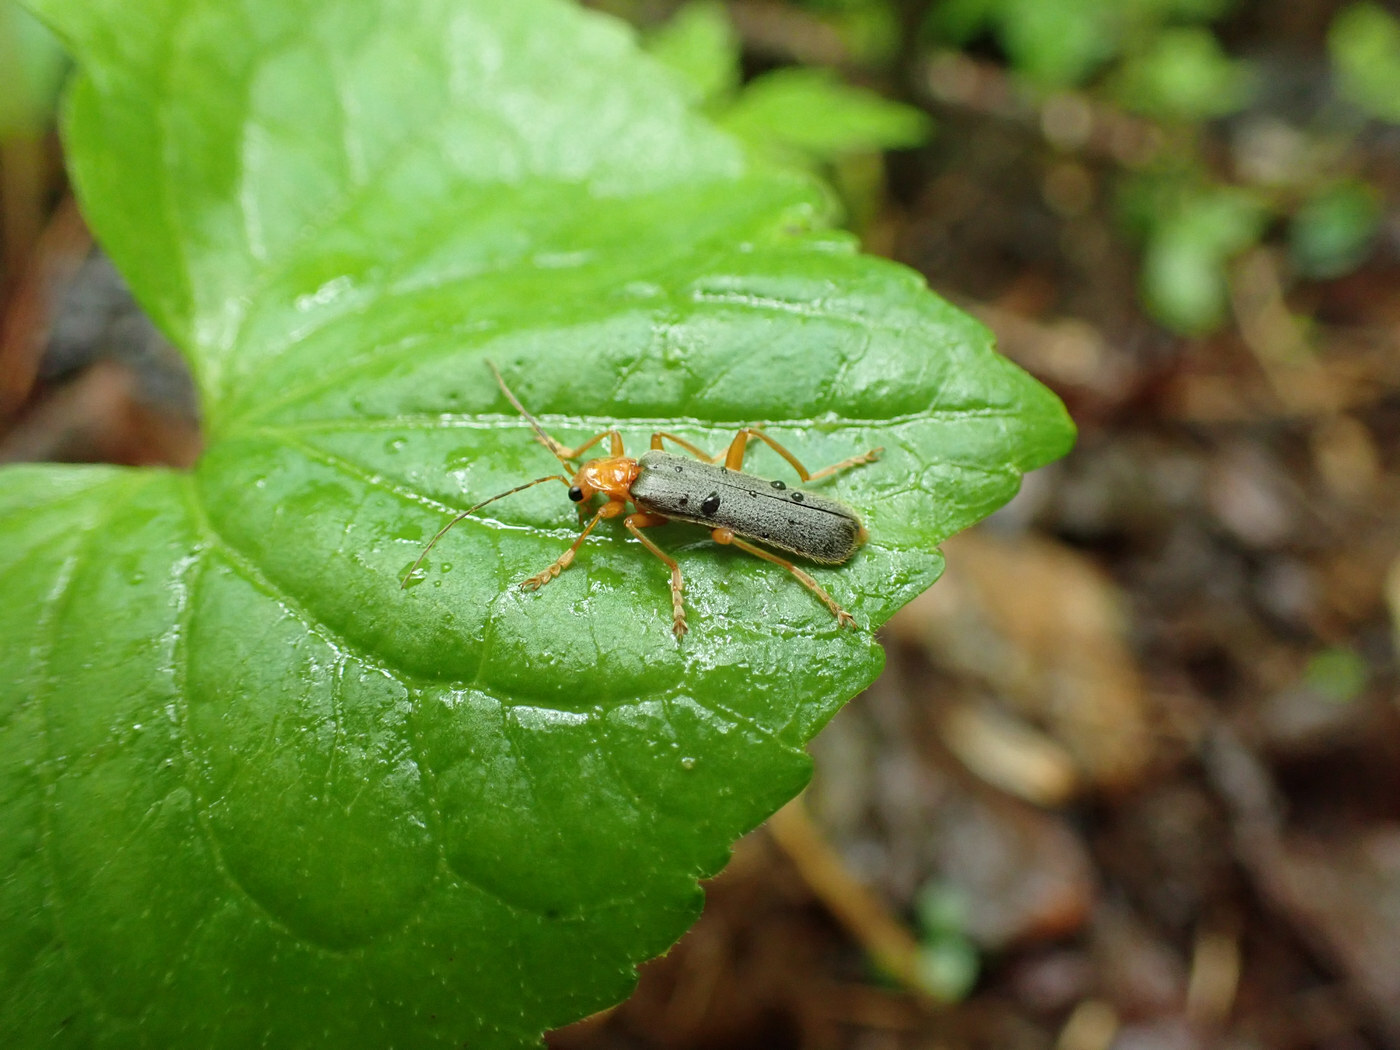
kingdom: Animalia
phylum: Arthropoda
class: Insecta
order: Coleoptera
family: Cantharidae
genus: Pacificanthia
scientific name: Pacificanthia rotundicollis
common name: Brown leatherwing beetle
